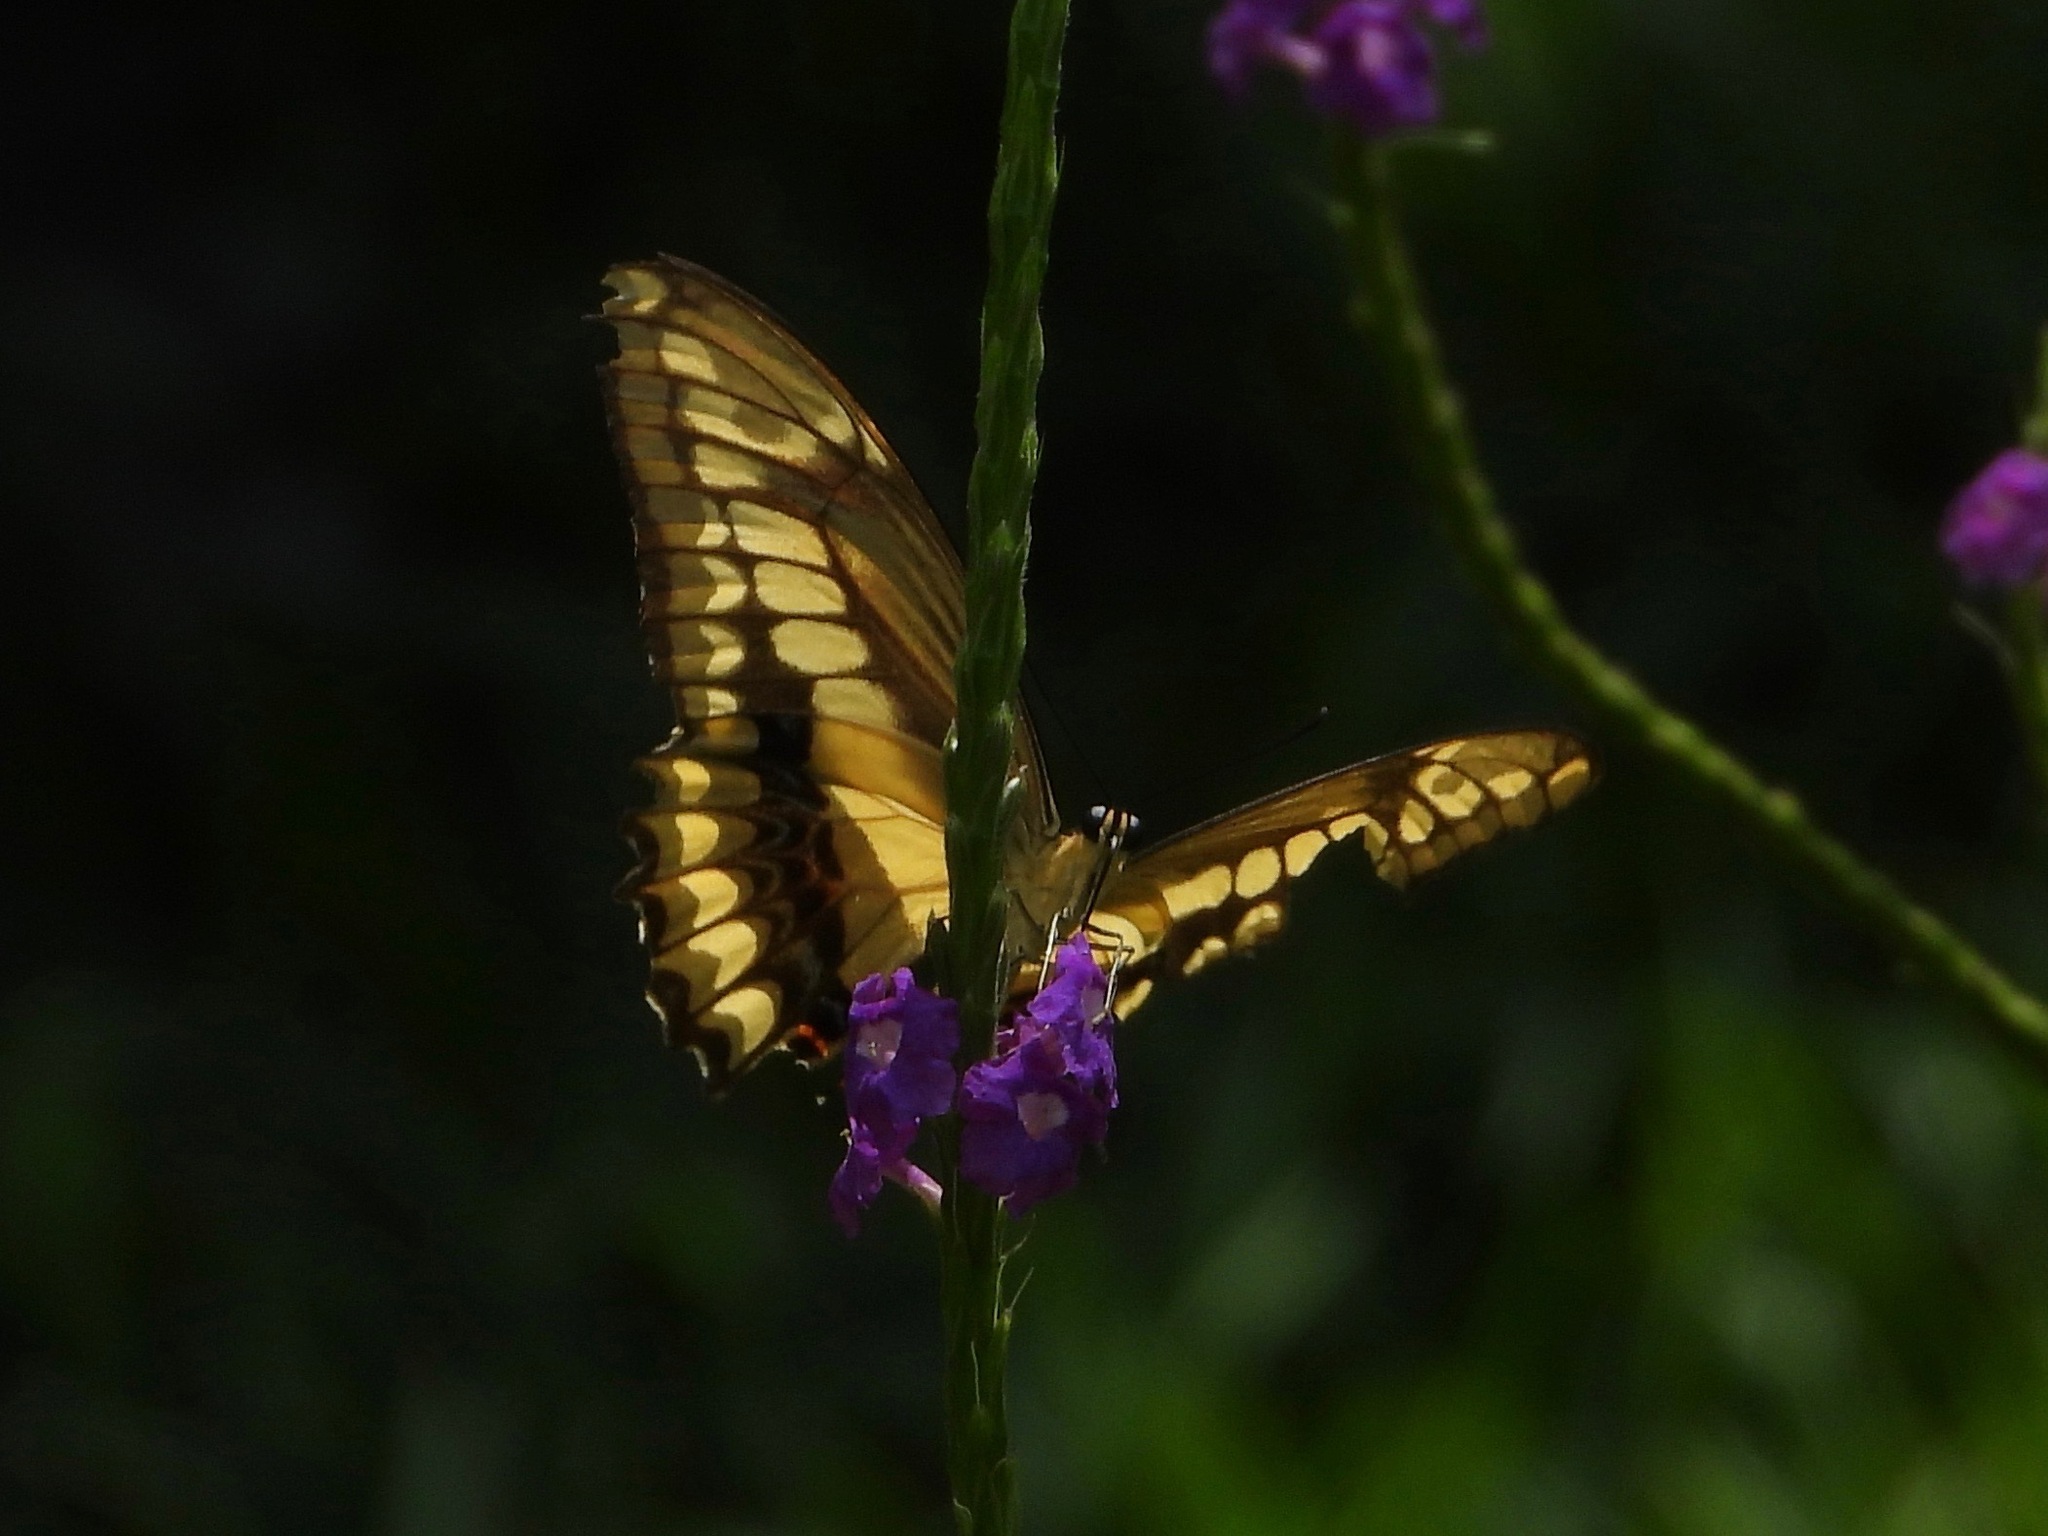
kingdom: Animalia
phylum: Arthropoda
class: Insecta
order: Lepidoptera
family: Papilionidae
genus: Papilio
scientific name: Papilio thoas
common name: King swallowtail
